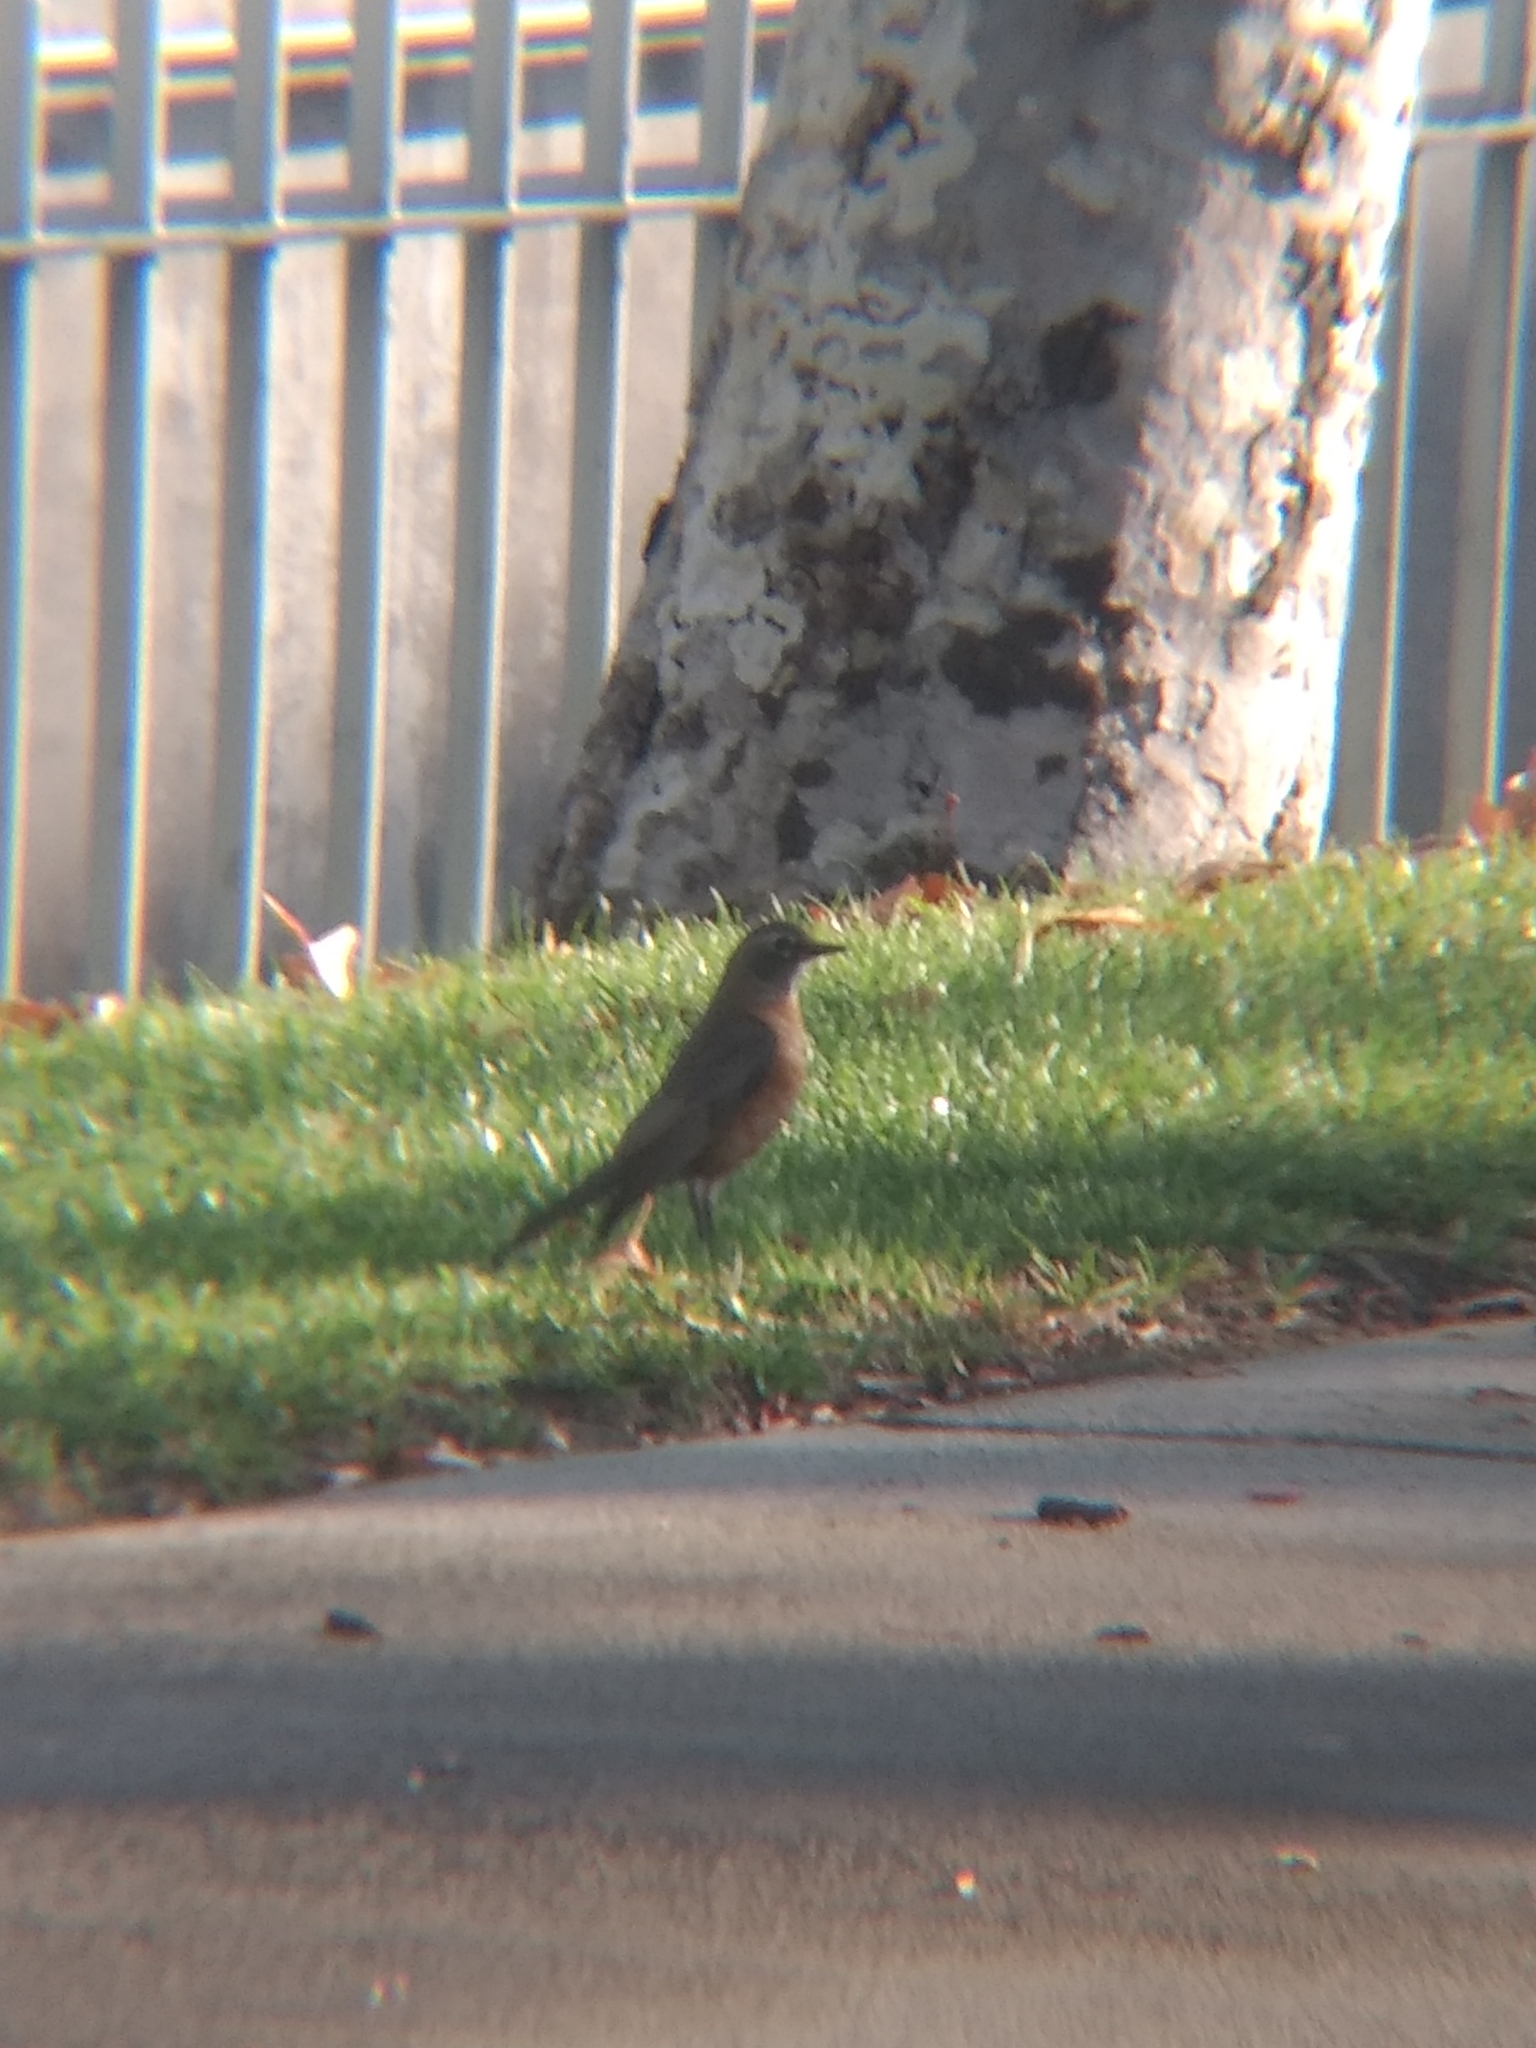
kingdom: Animalia
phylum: Chordata
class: Aves
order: Passeriformes
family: Turdidae
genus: Turdus
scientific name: Turdus migratorius
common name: American robin
